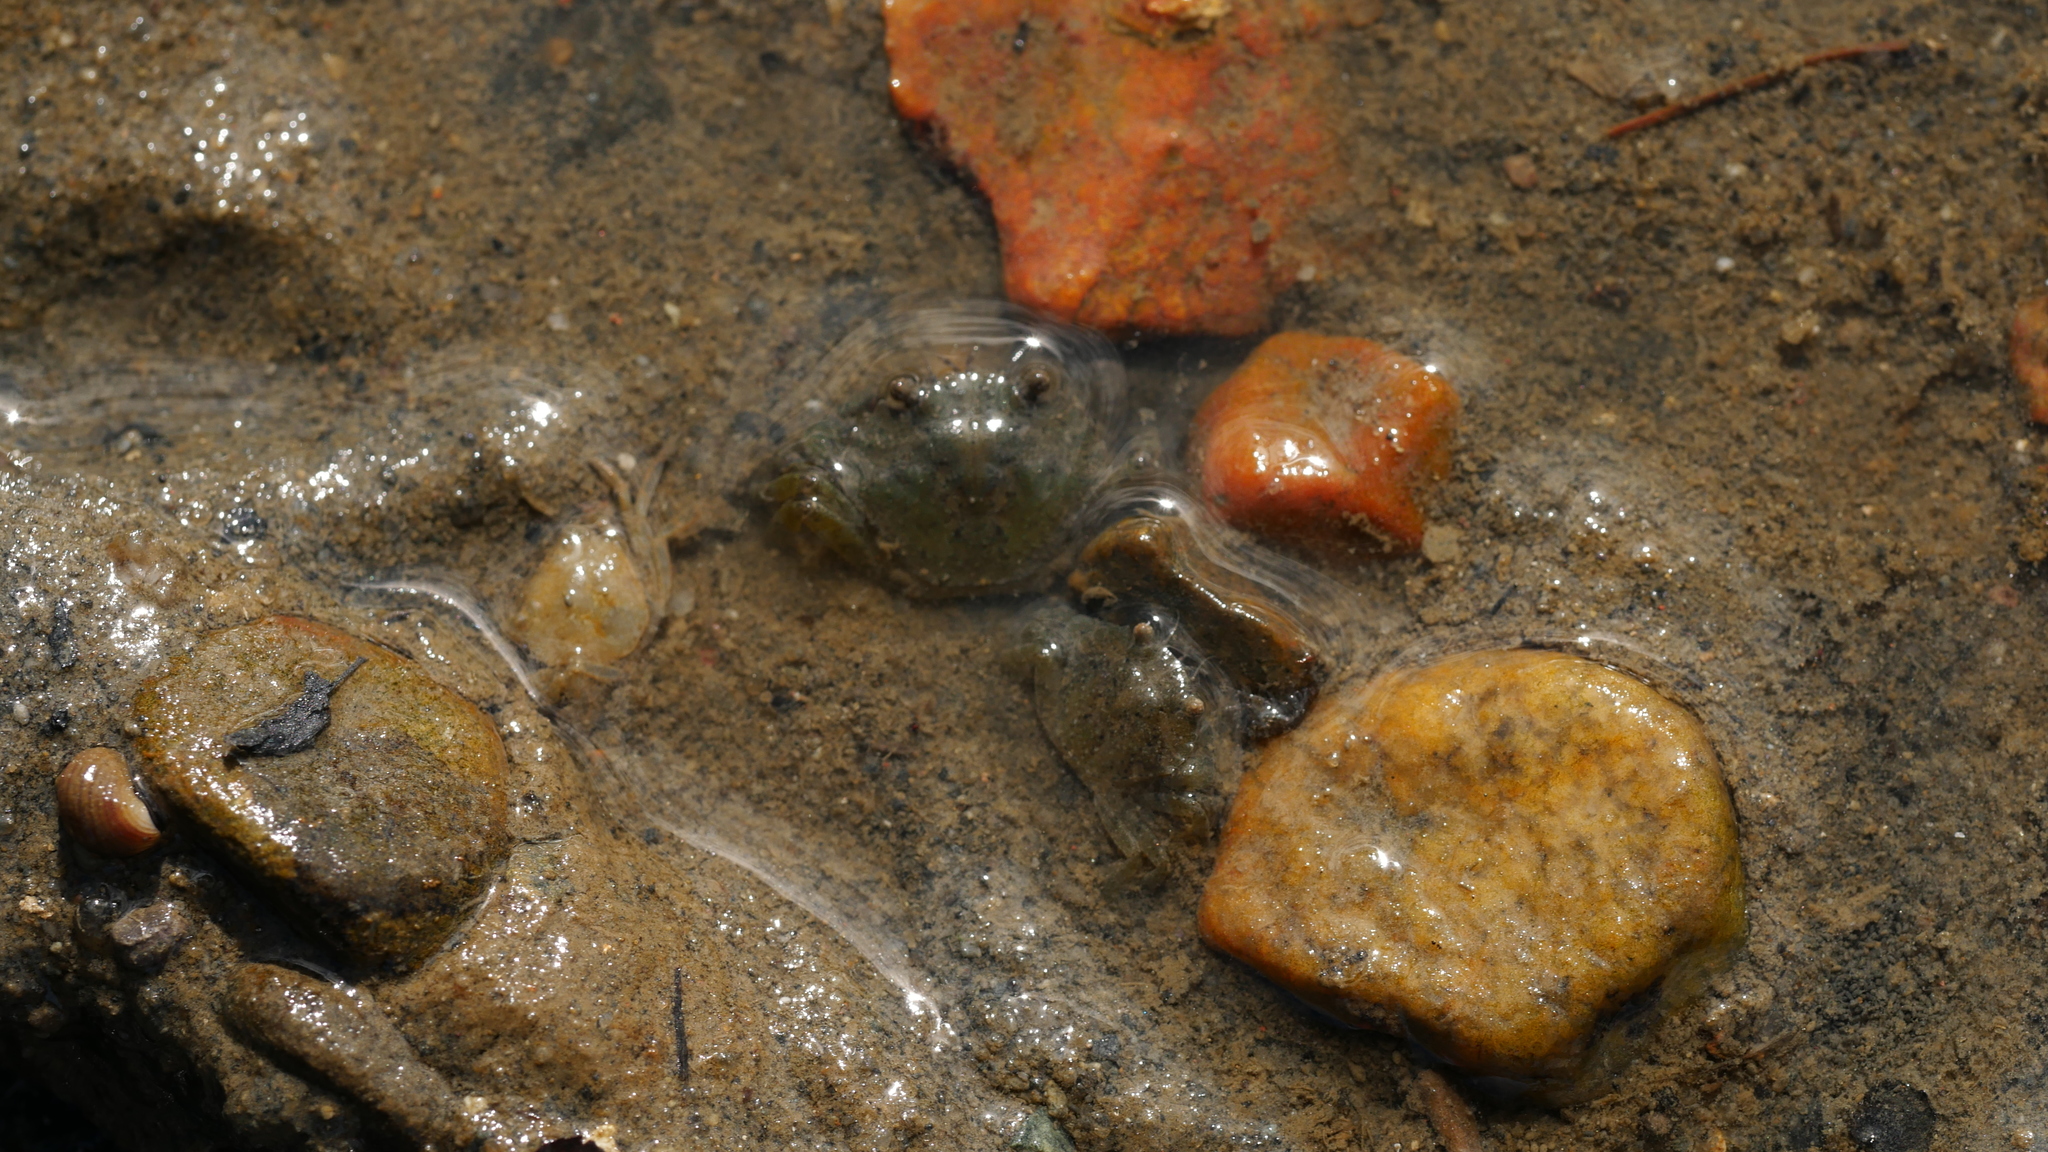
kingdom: Animalia
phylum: Arthropoda
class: Malacostraca
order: Decapoda
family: Carcinidae
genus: Carcinus
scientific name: Carcinus maenas
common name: European green crab
